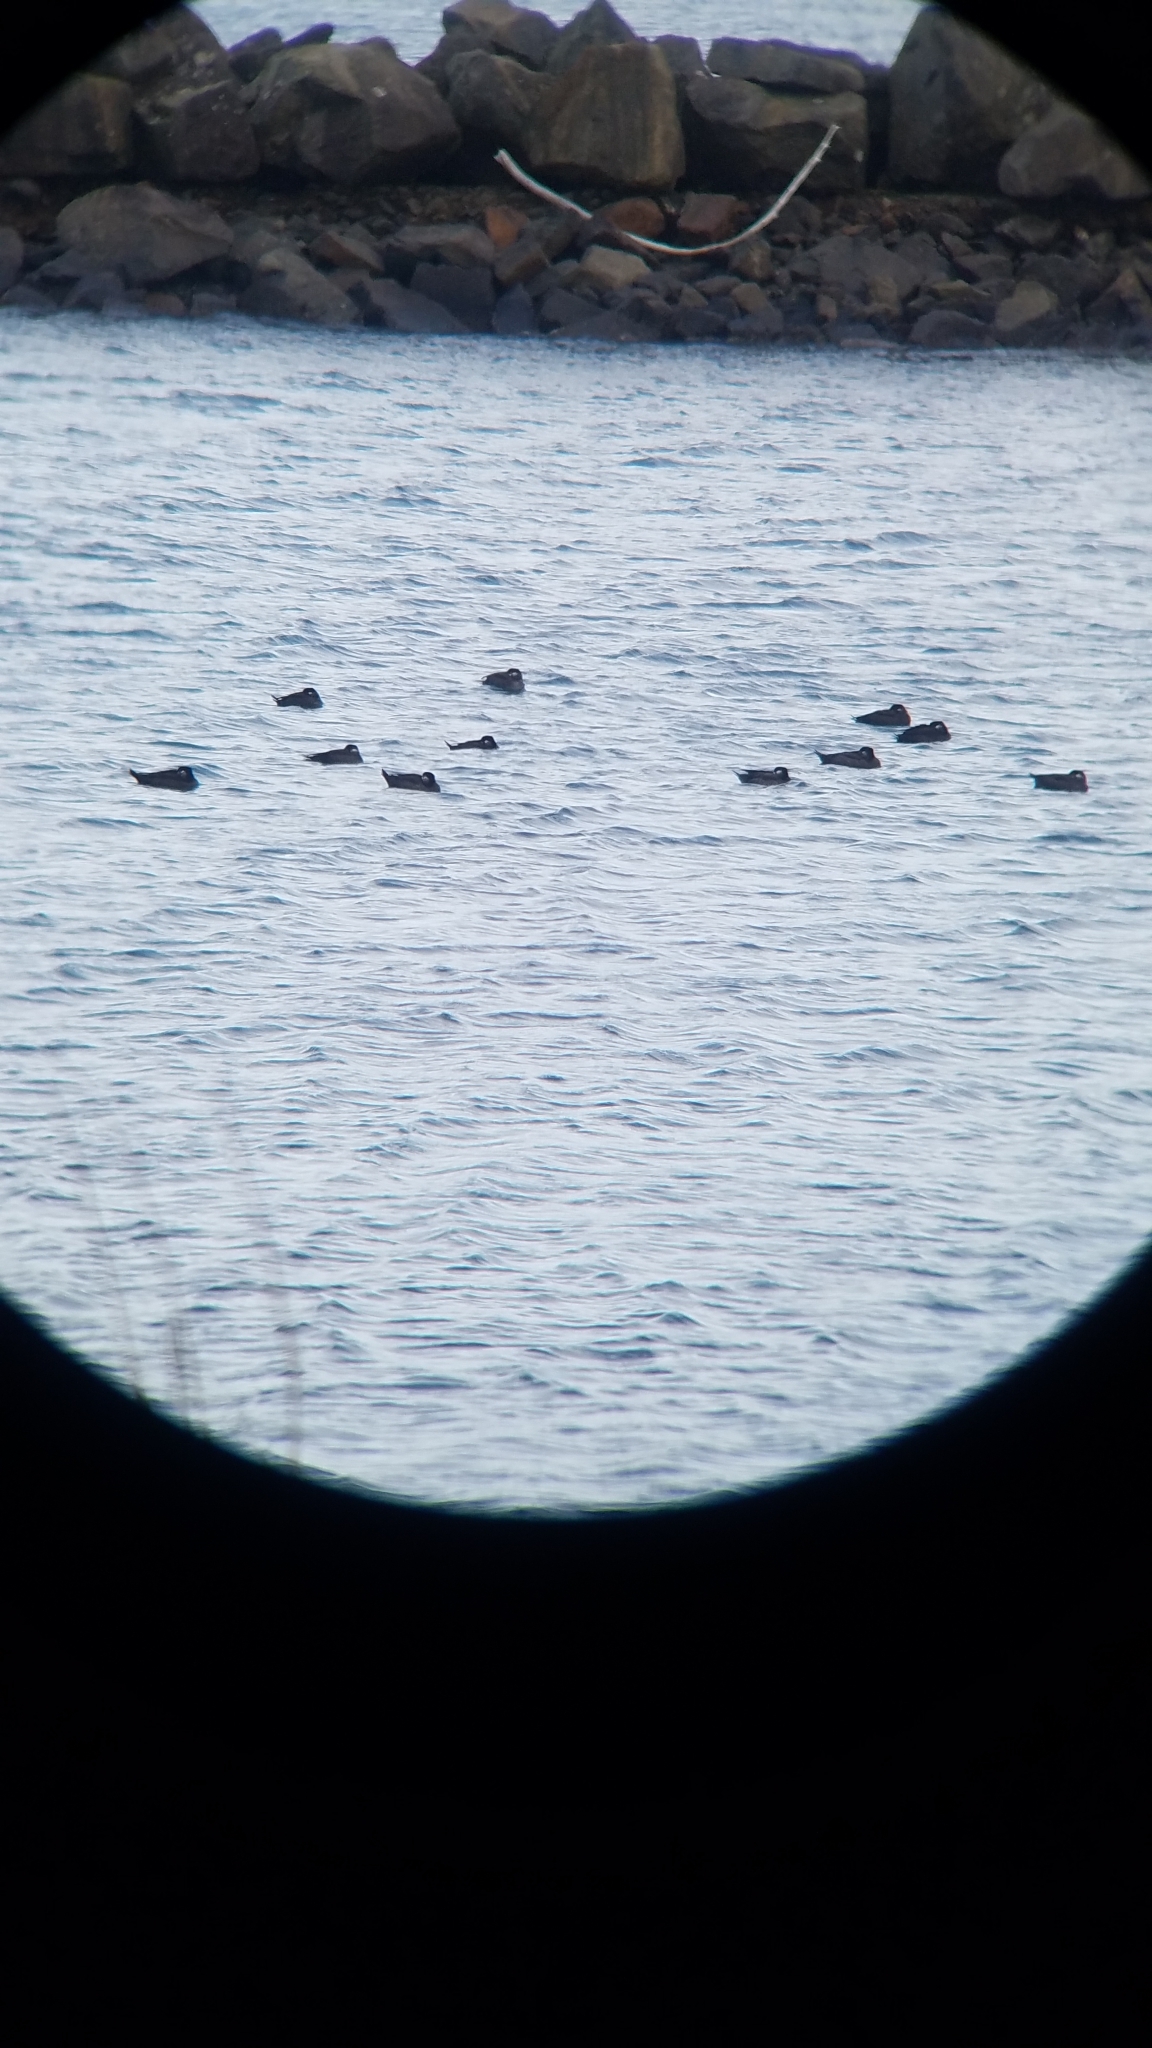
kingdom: Animalia
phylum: Chordata
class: Aves
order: Anseriformes
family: Anatidae
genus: Oxyura
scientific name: Oxyura jamaicensis
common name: Ruddy duck
